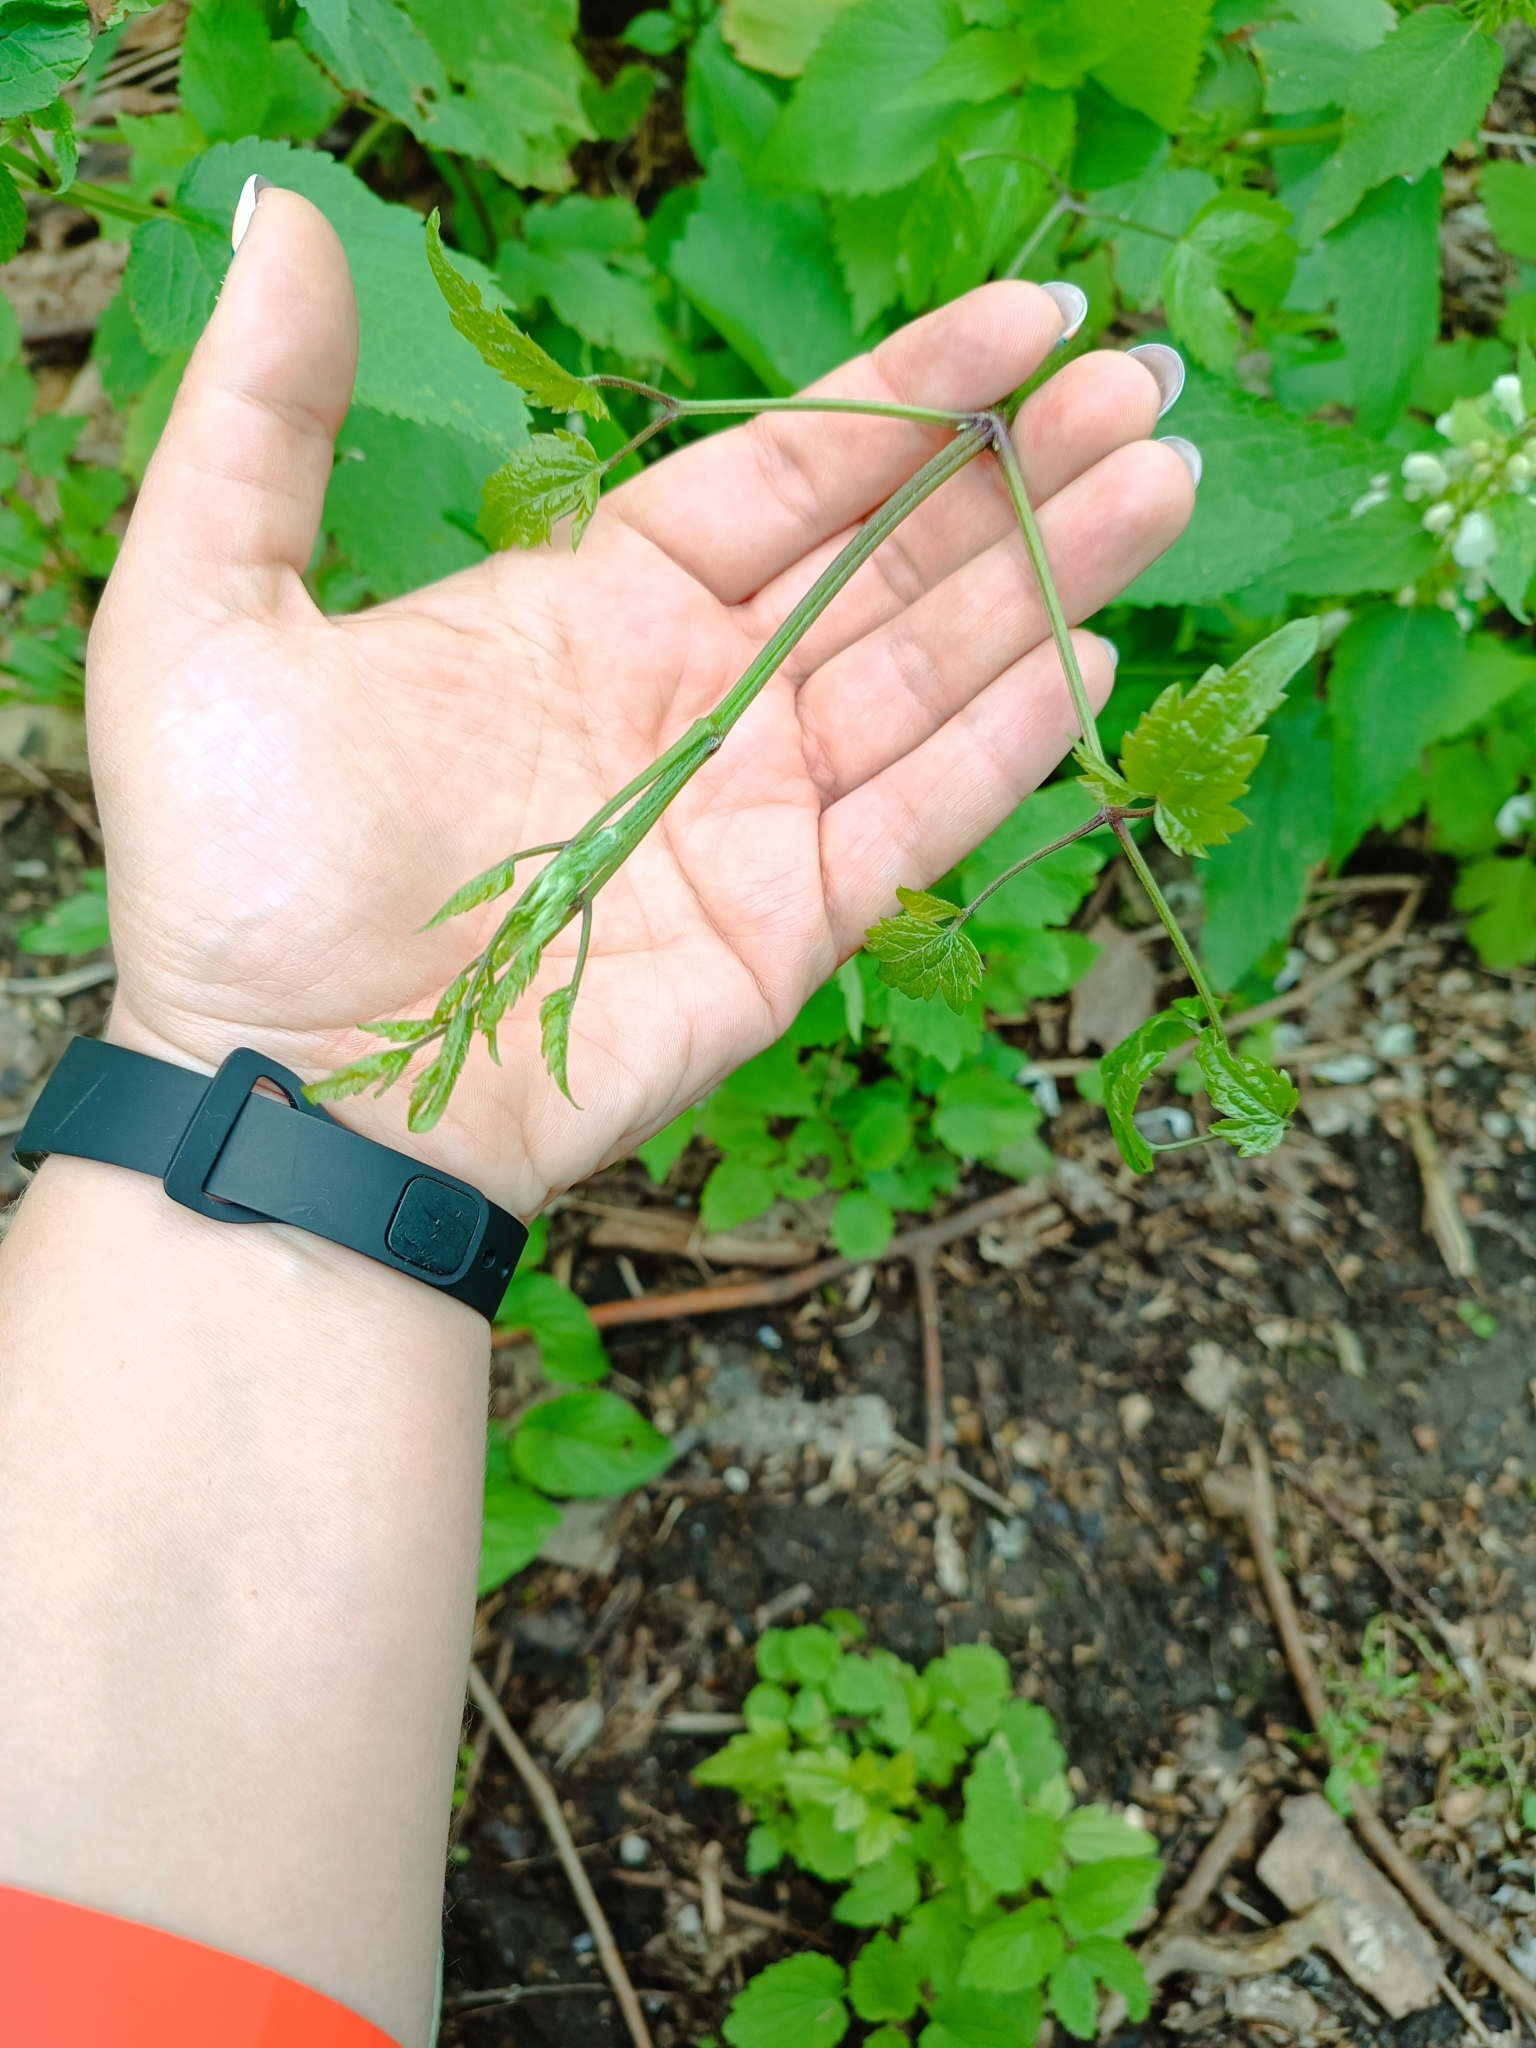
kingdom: Plantae
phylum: Tracheophyta
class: Magnoliopsida
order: Ranunculales
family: Ranunculaceae
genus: Clematis
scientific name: Clematis vitalba
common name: Evergreen clematis
